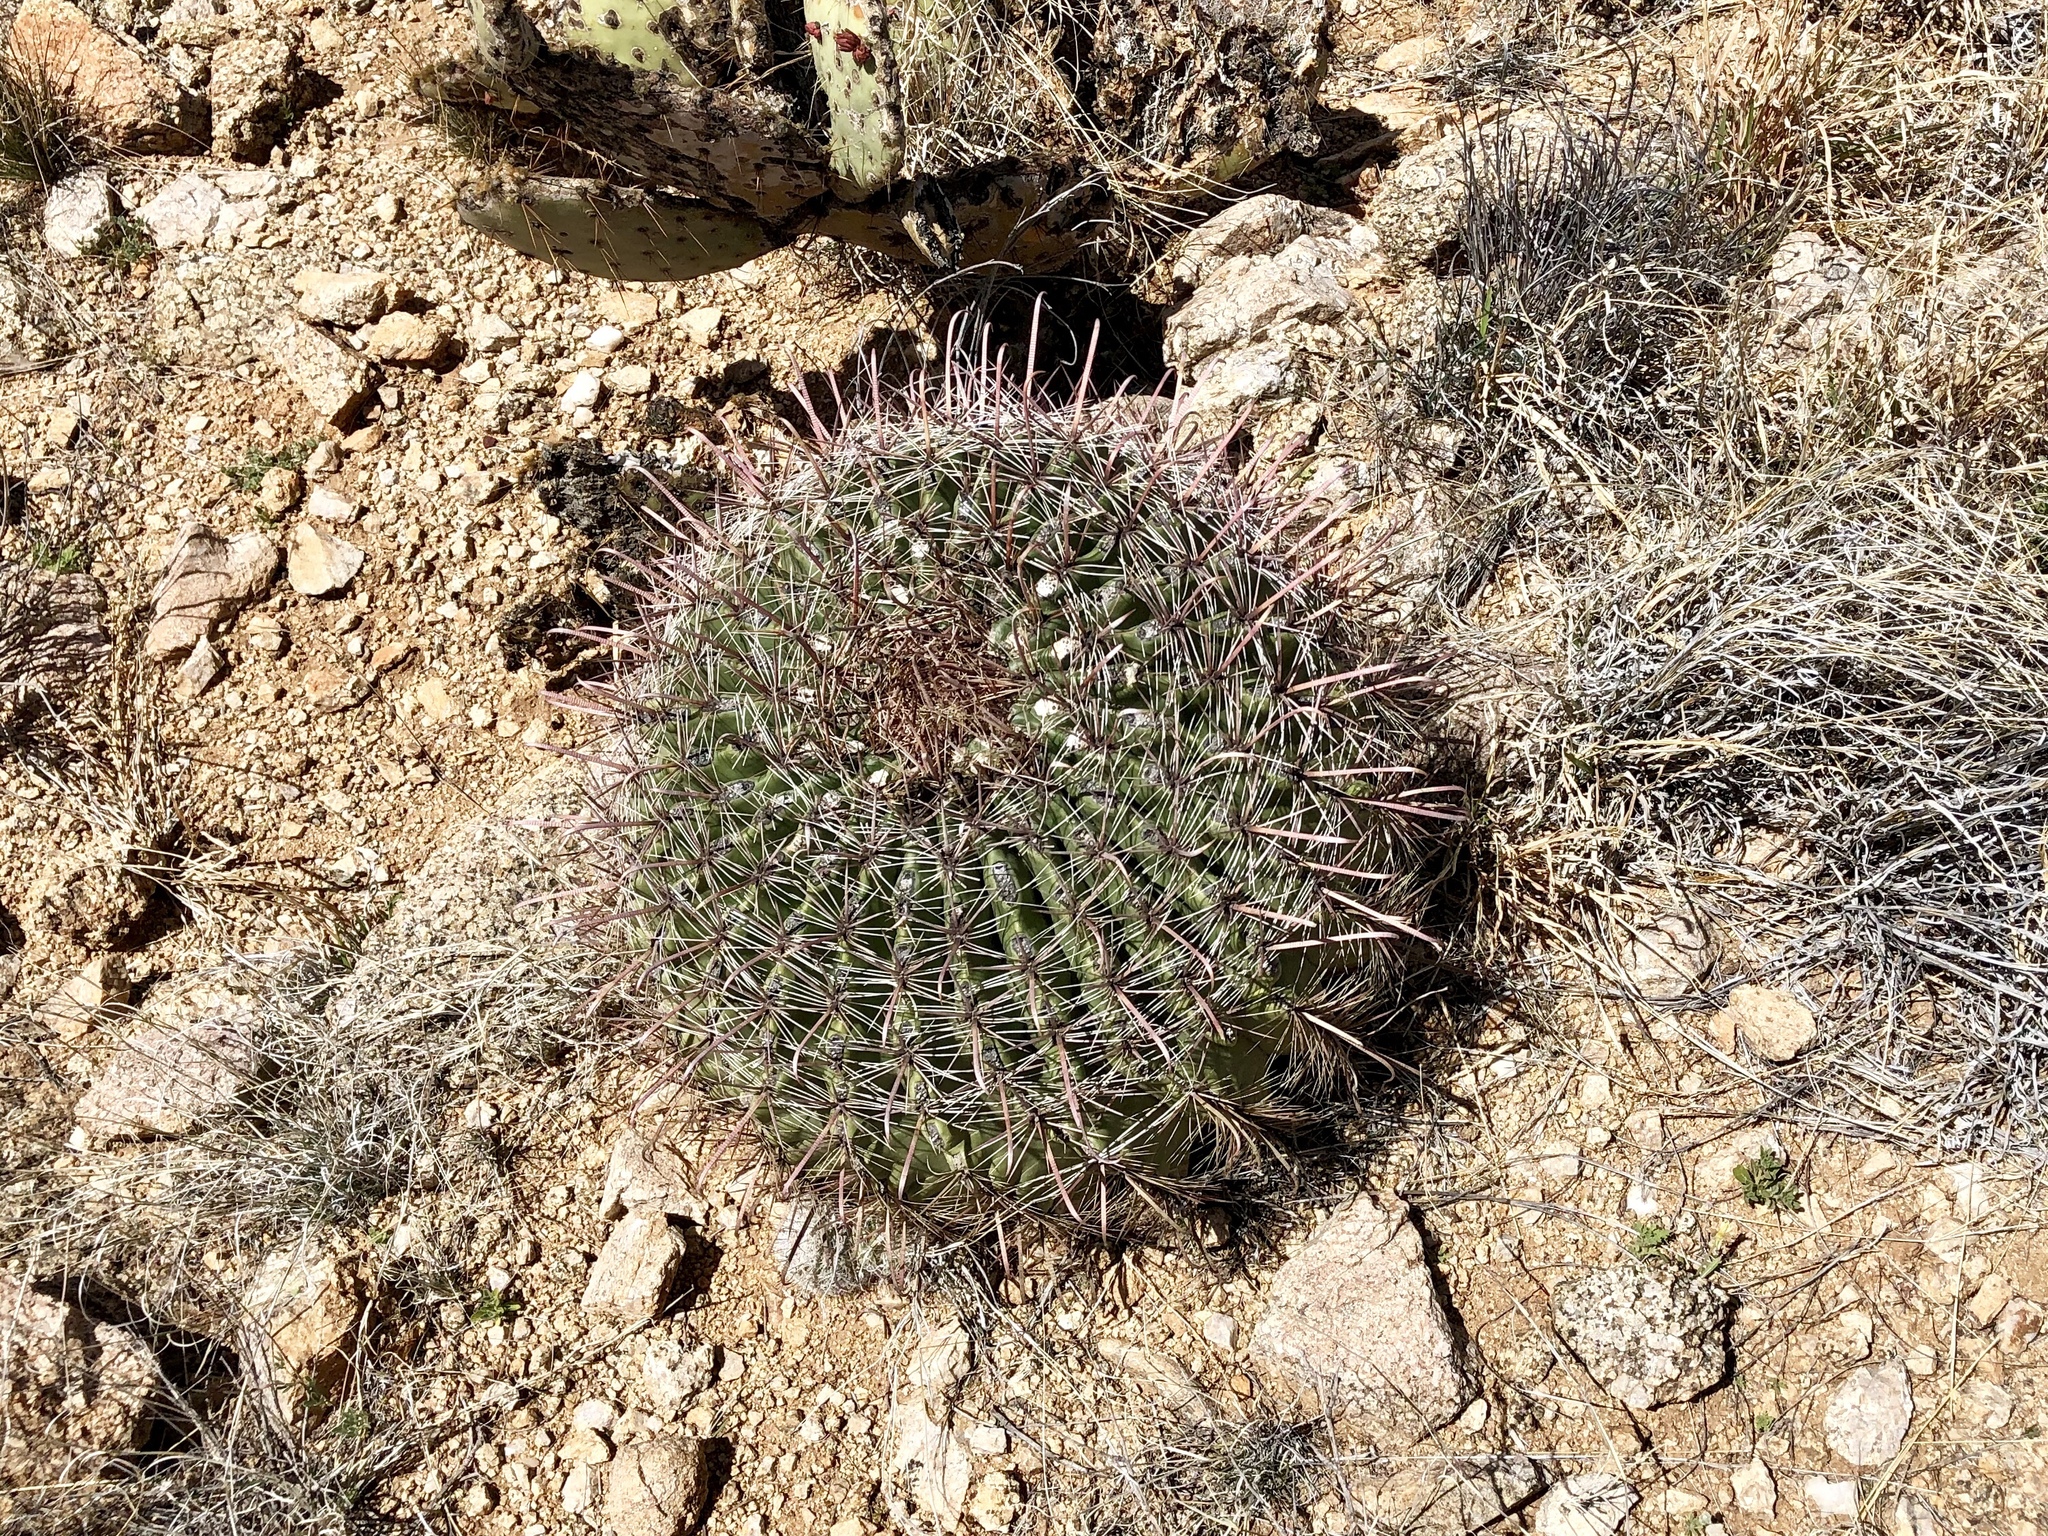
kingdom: Plantae
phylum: Tracheophyta
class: Magnoliopsida
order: Caryophyllales
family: Cactaceae
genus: Ferocactus
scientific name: Ferocactus wislizeni
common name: Candy barrel cactus
